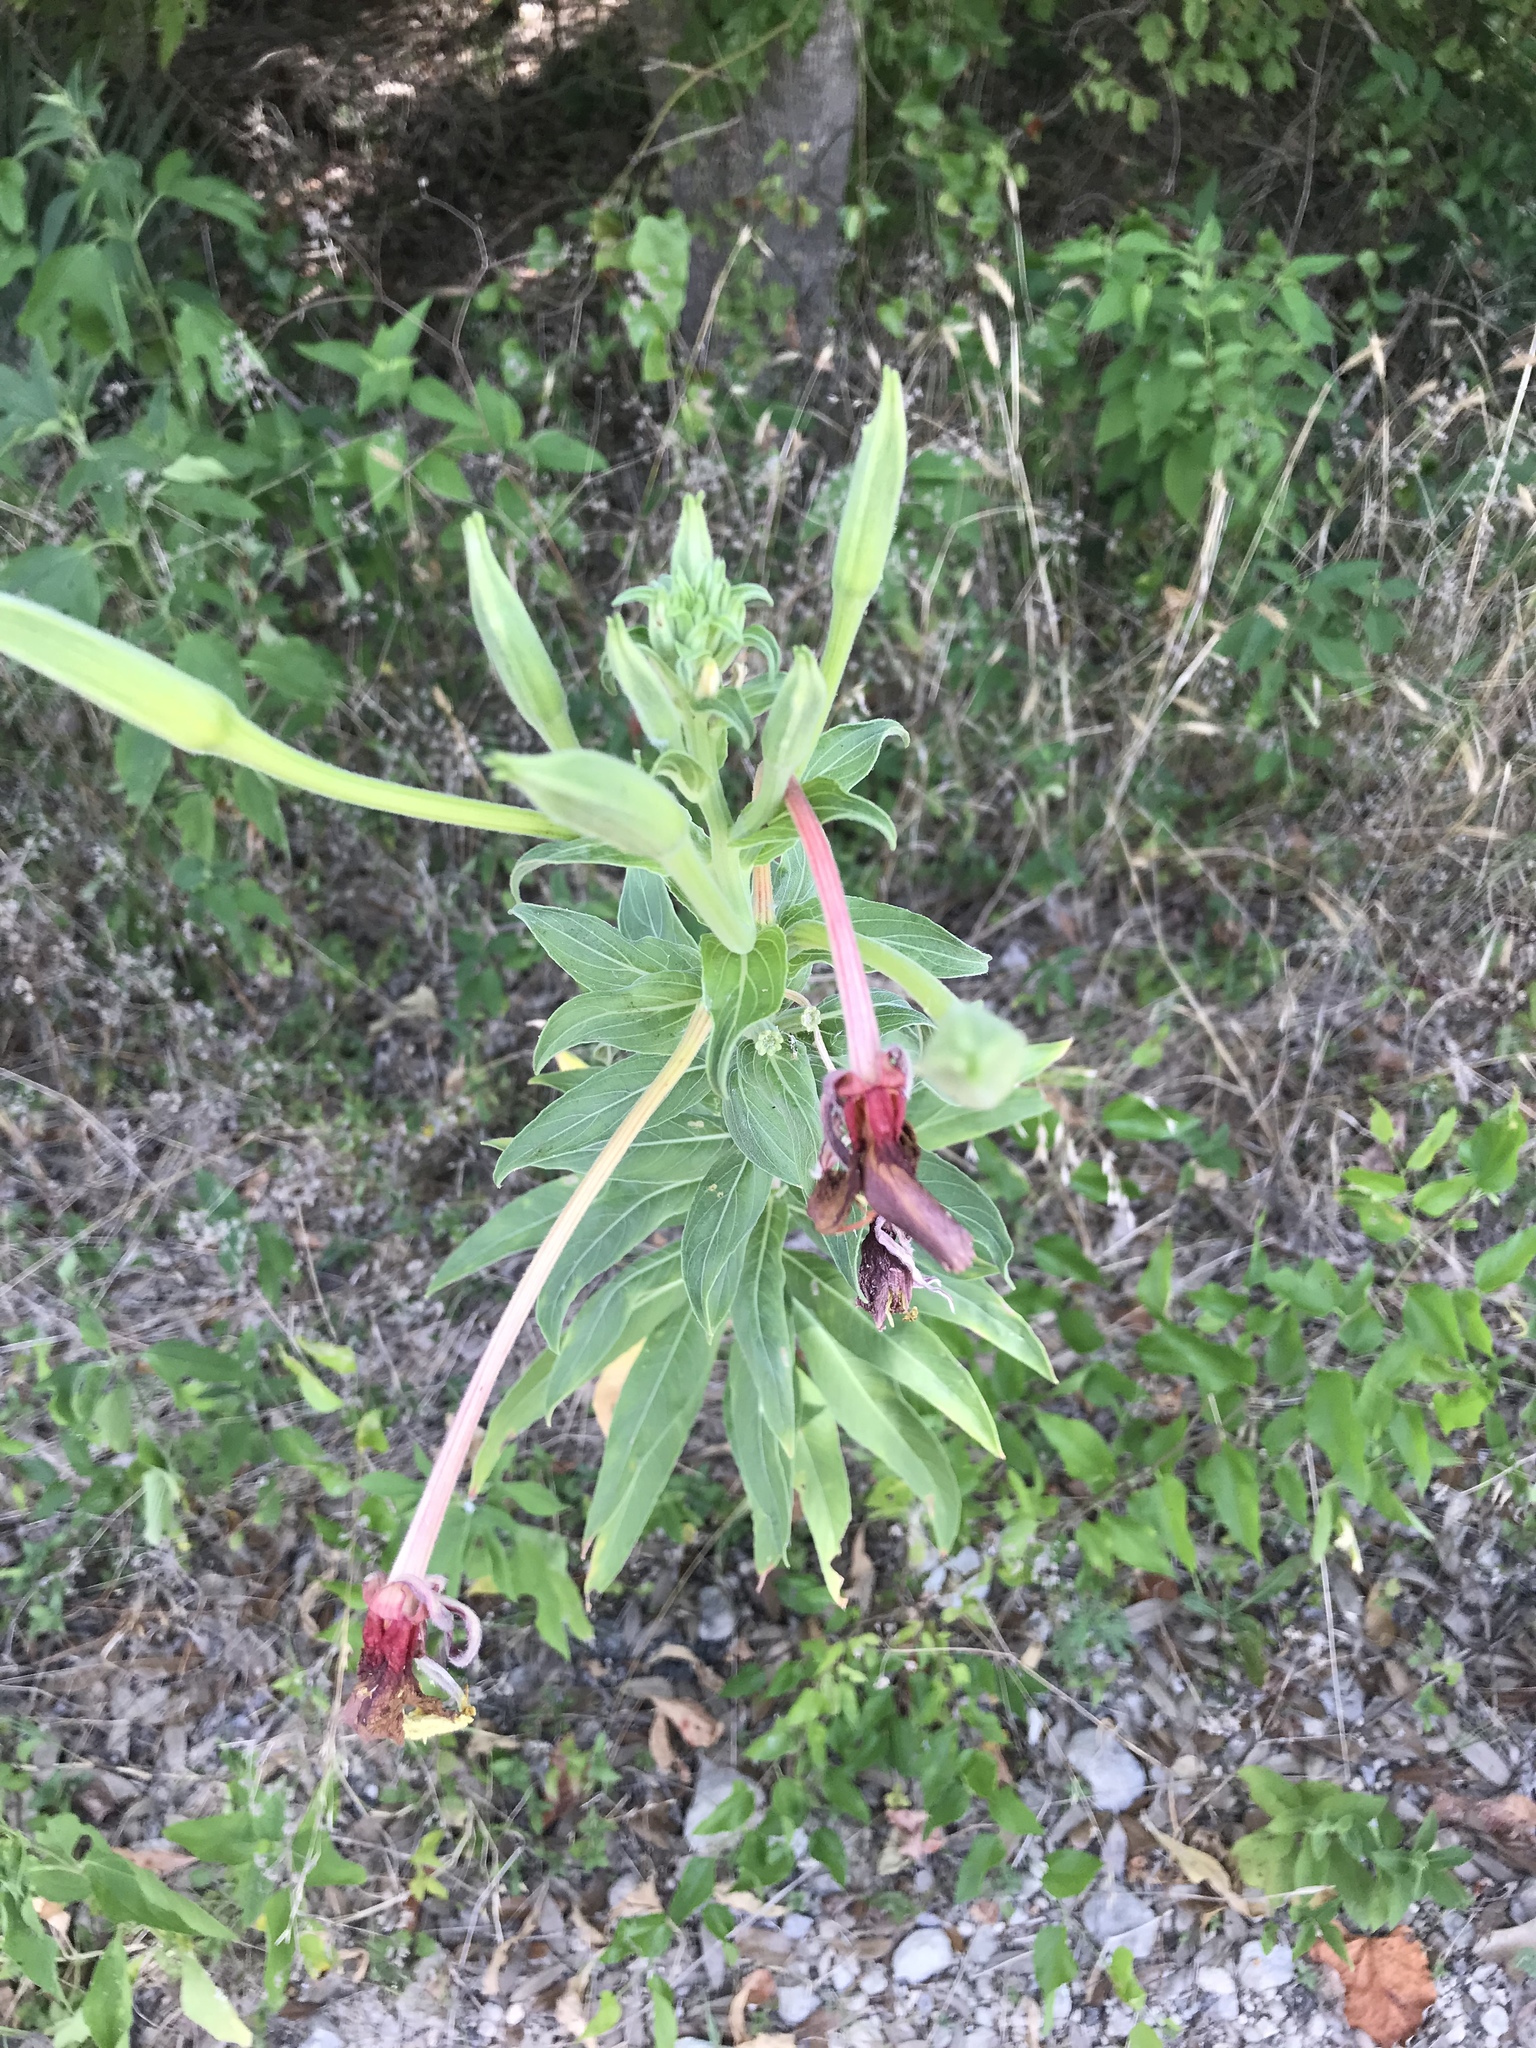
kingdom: Plantae
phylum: Tracheophyta
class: Magnoliopsida
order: Myrtales
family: Onagraceae
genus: Oenothera
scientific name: Oenothera jamesii
